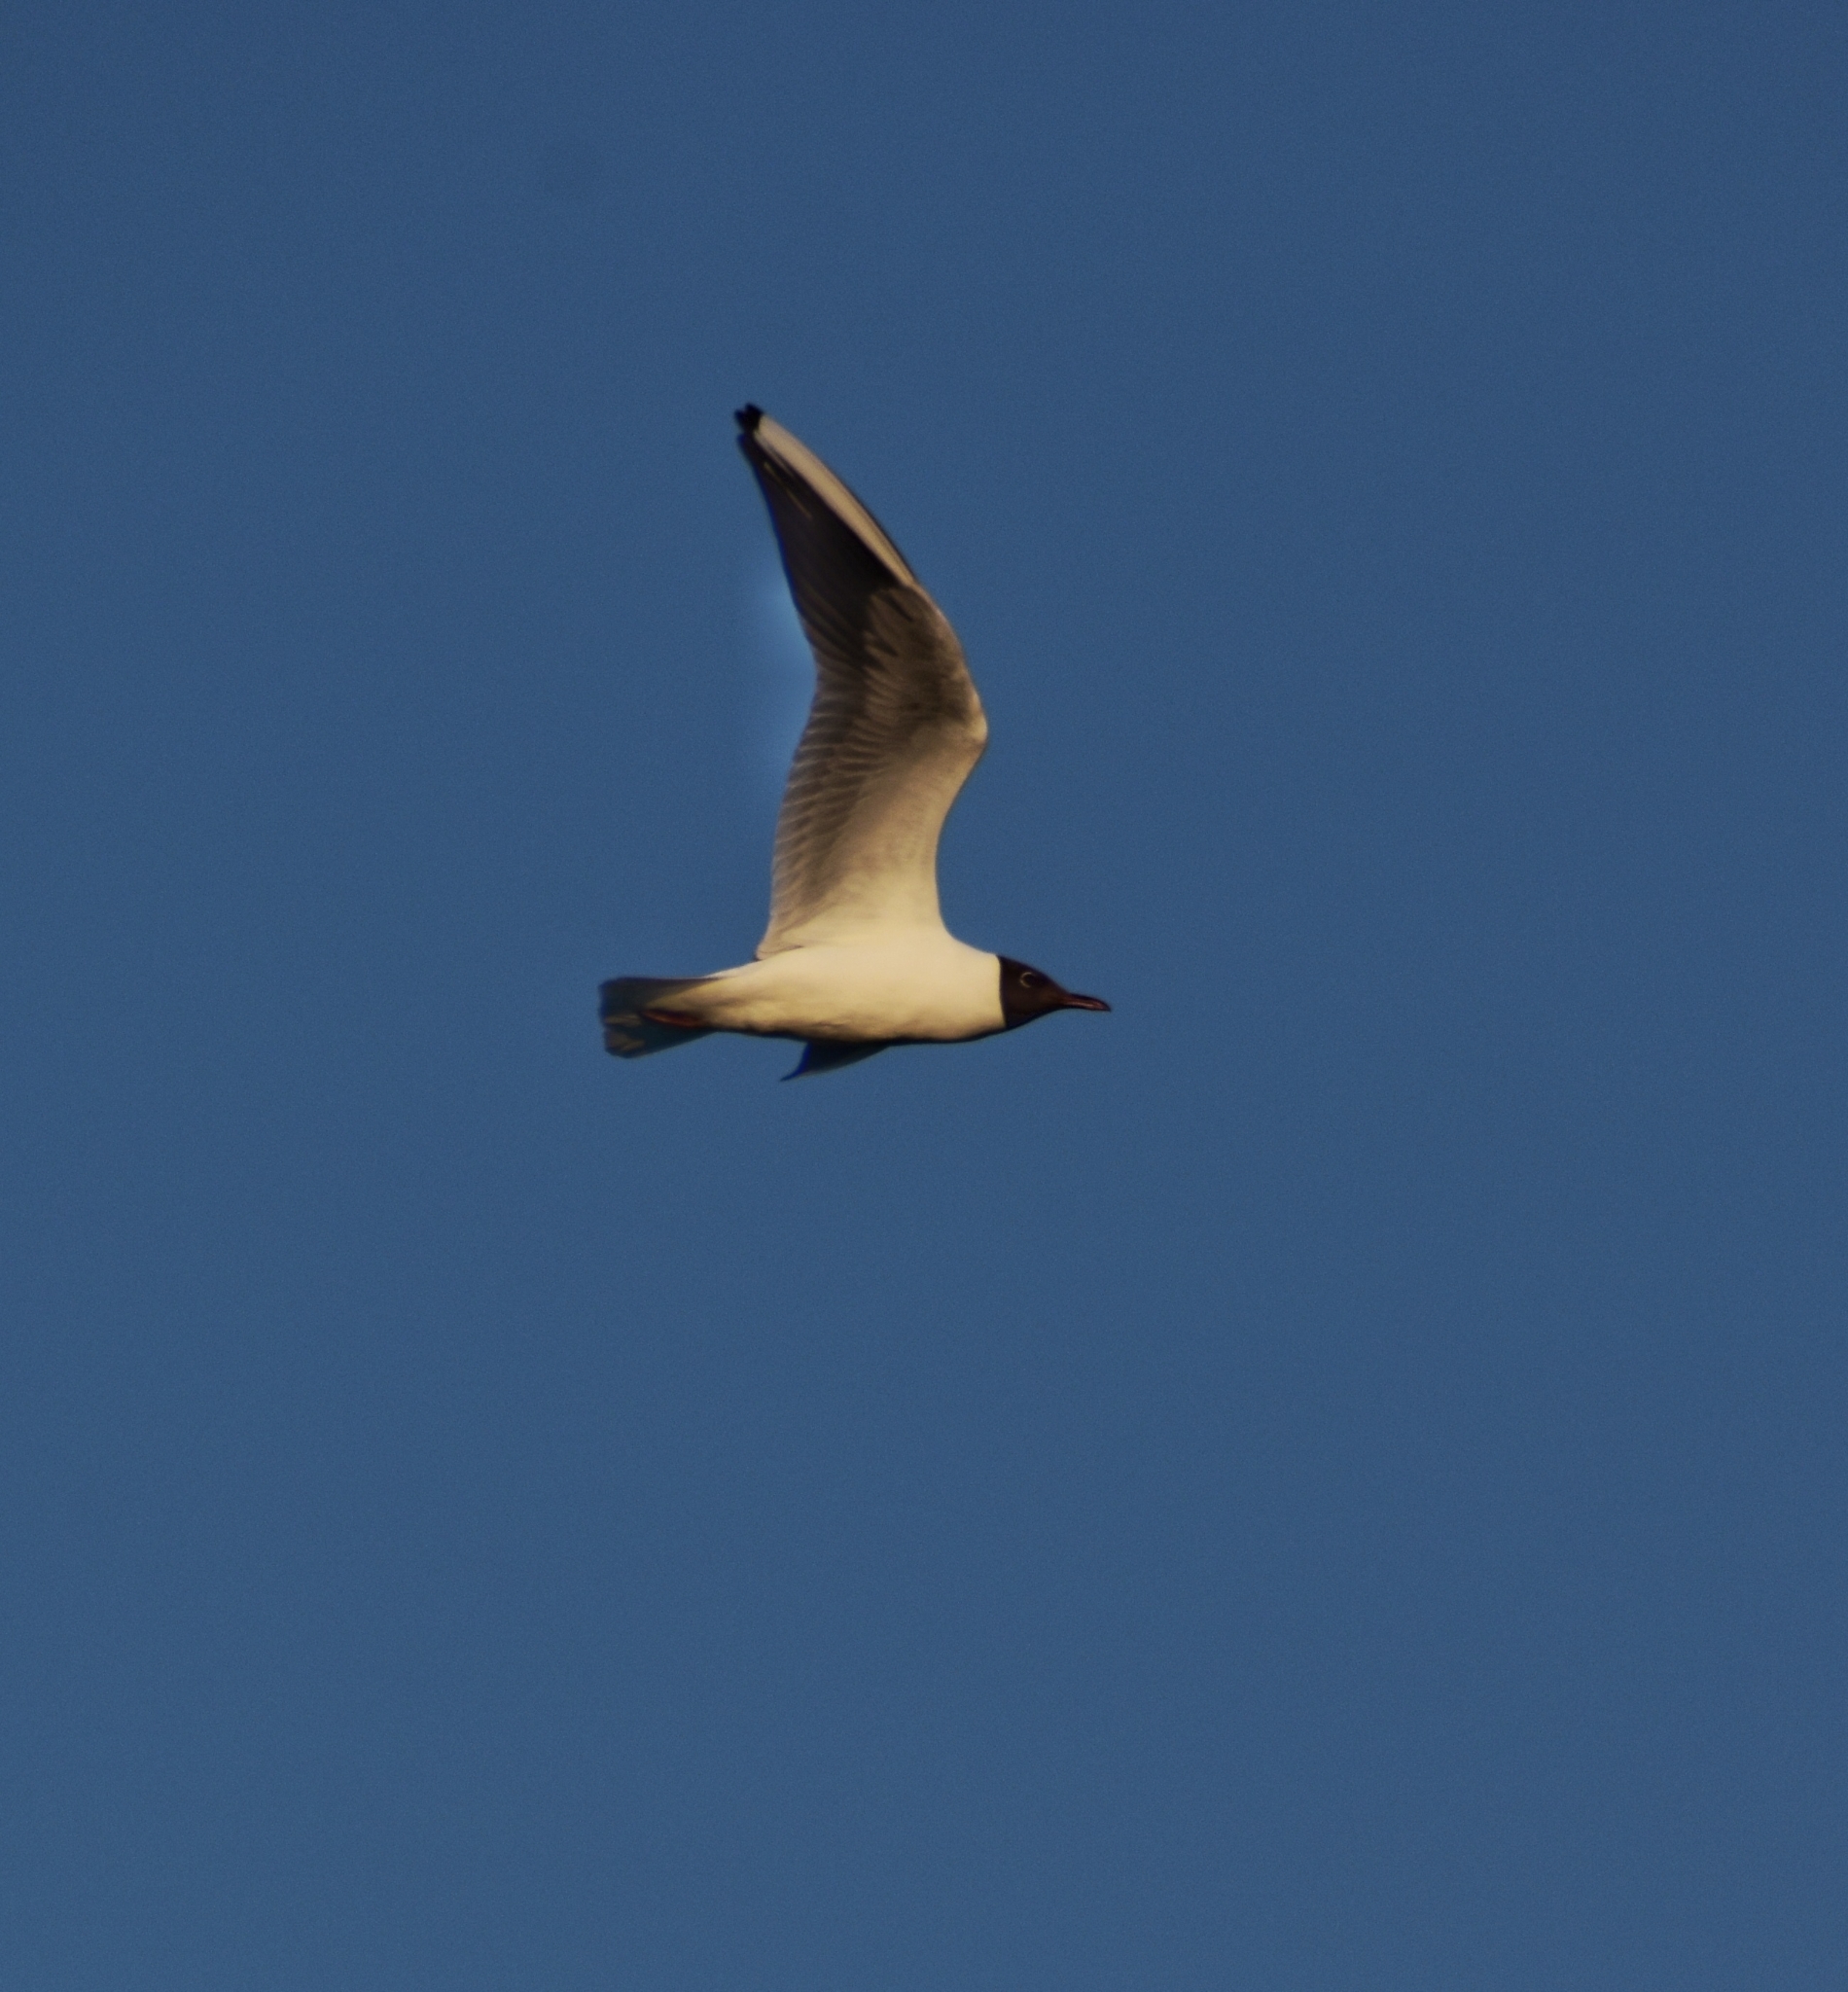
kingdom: Animalia
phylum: Chordata
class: Aves
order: Charadriiformes
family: Laridae
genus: Chroicocephalus
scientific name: Chroicocephalus ridibundus
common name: Black-headed gull
